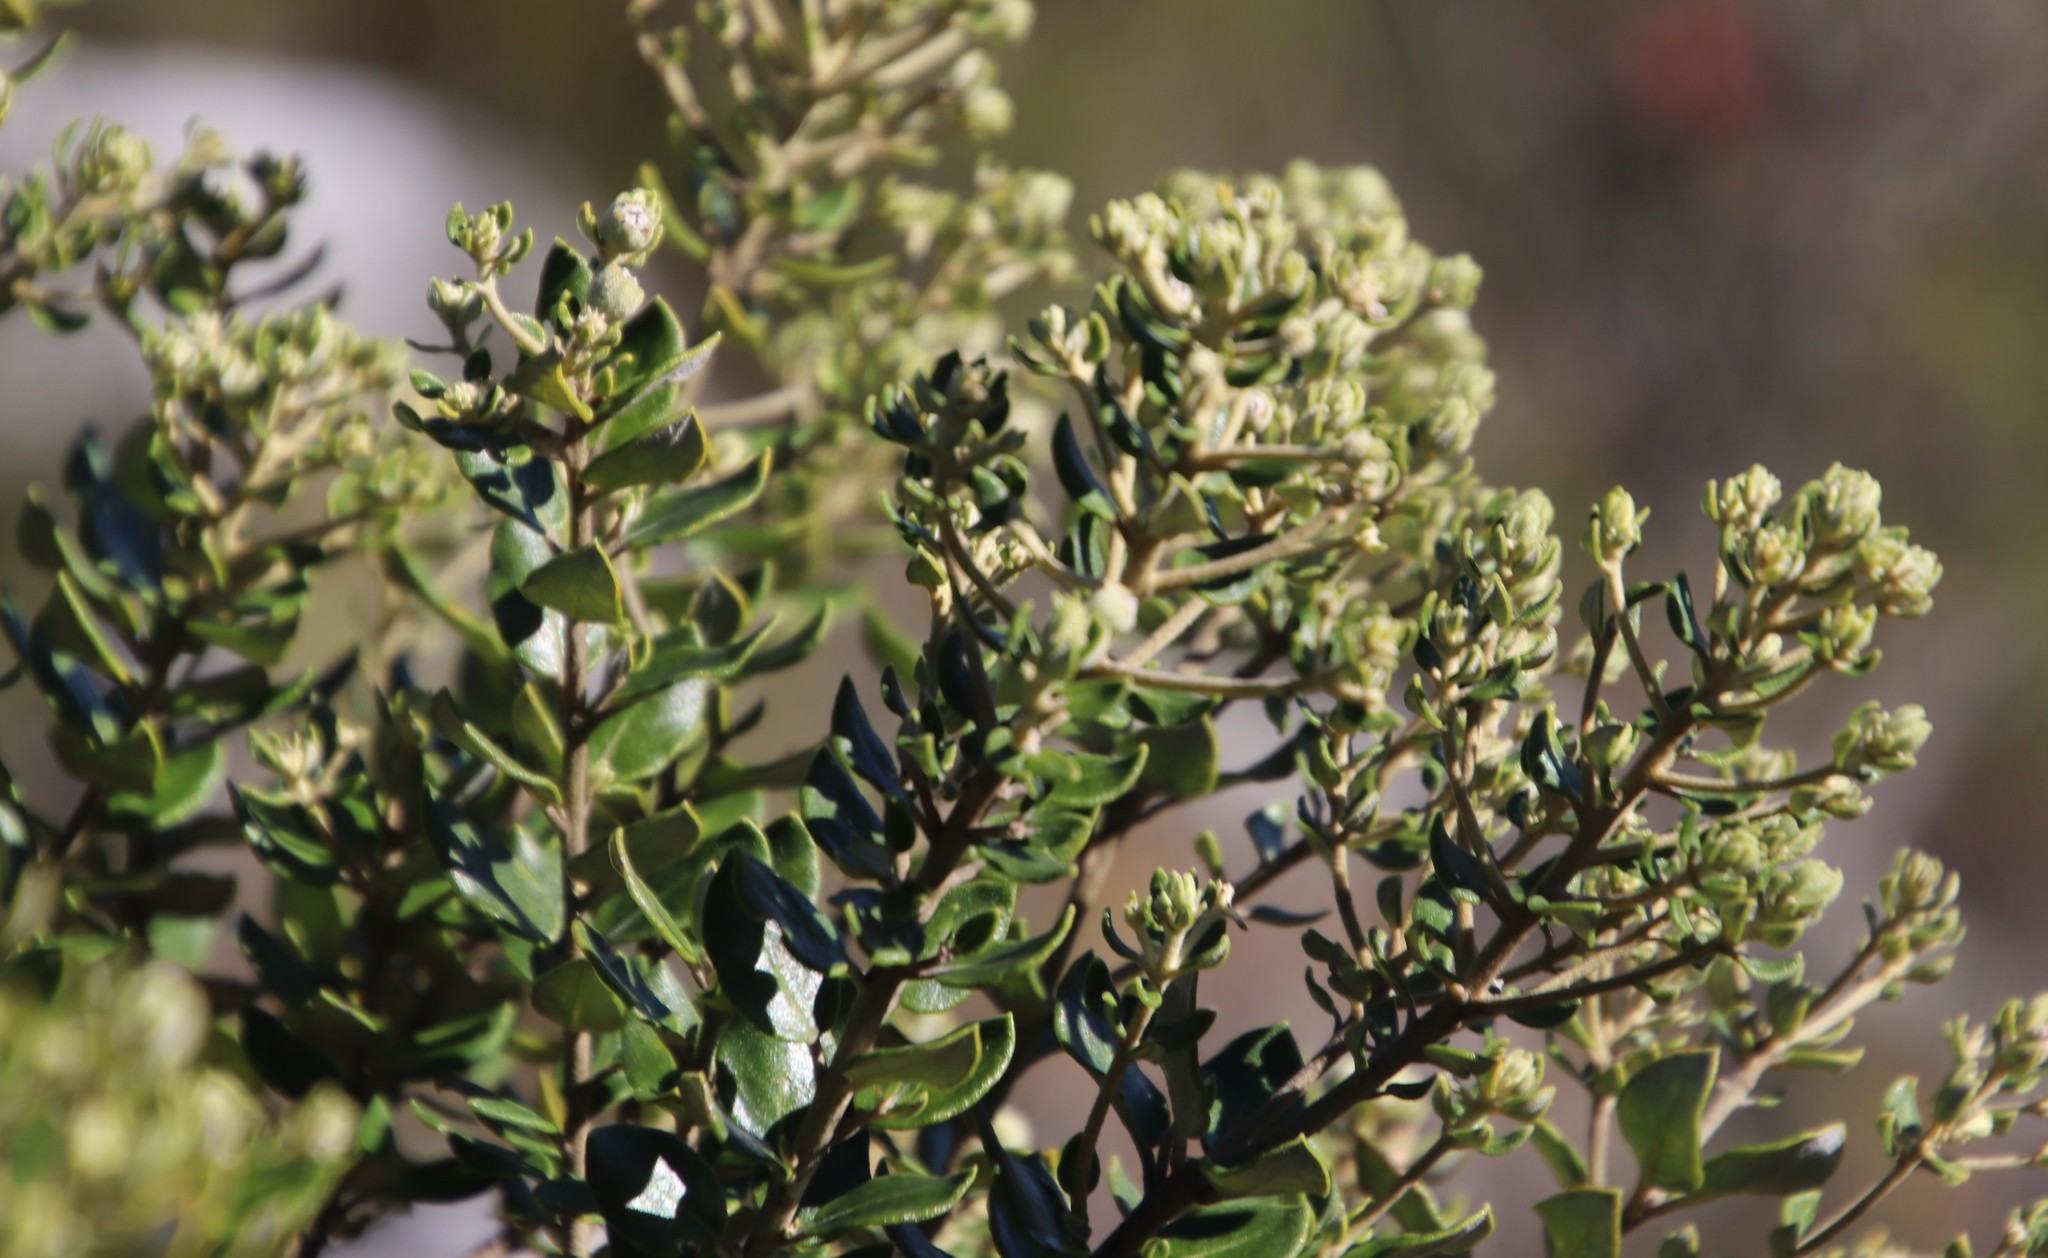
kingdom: Plantae
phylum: Tracheophyta
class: Magnoliopsida
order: Rosales
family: Rhamnaceae
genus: Phylica
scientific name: Phylica buxifolia
